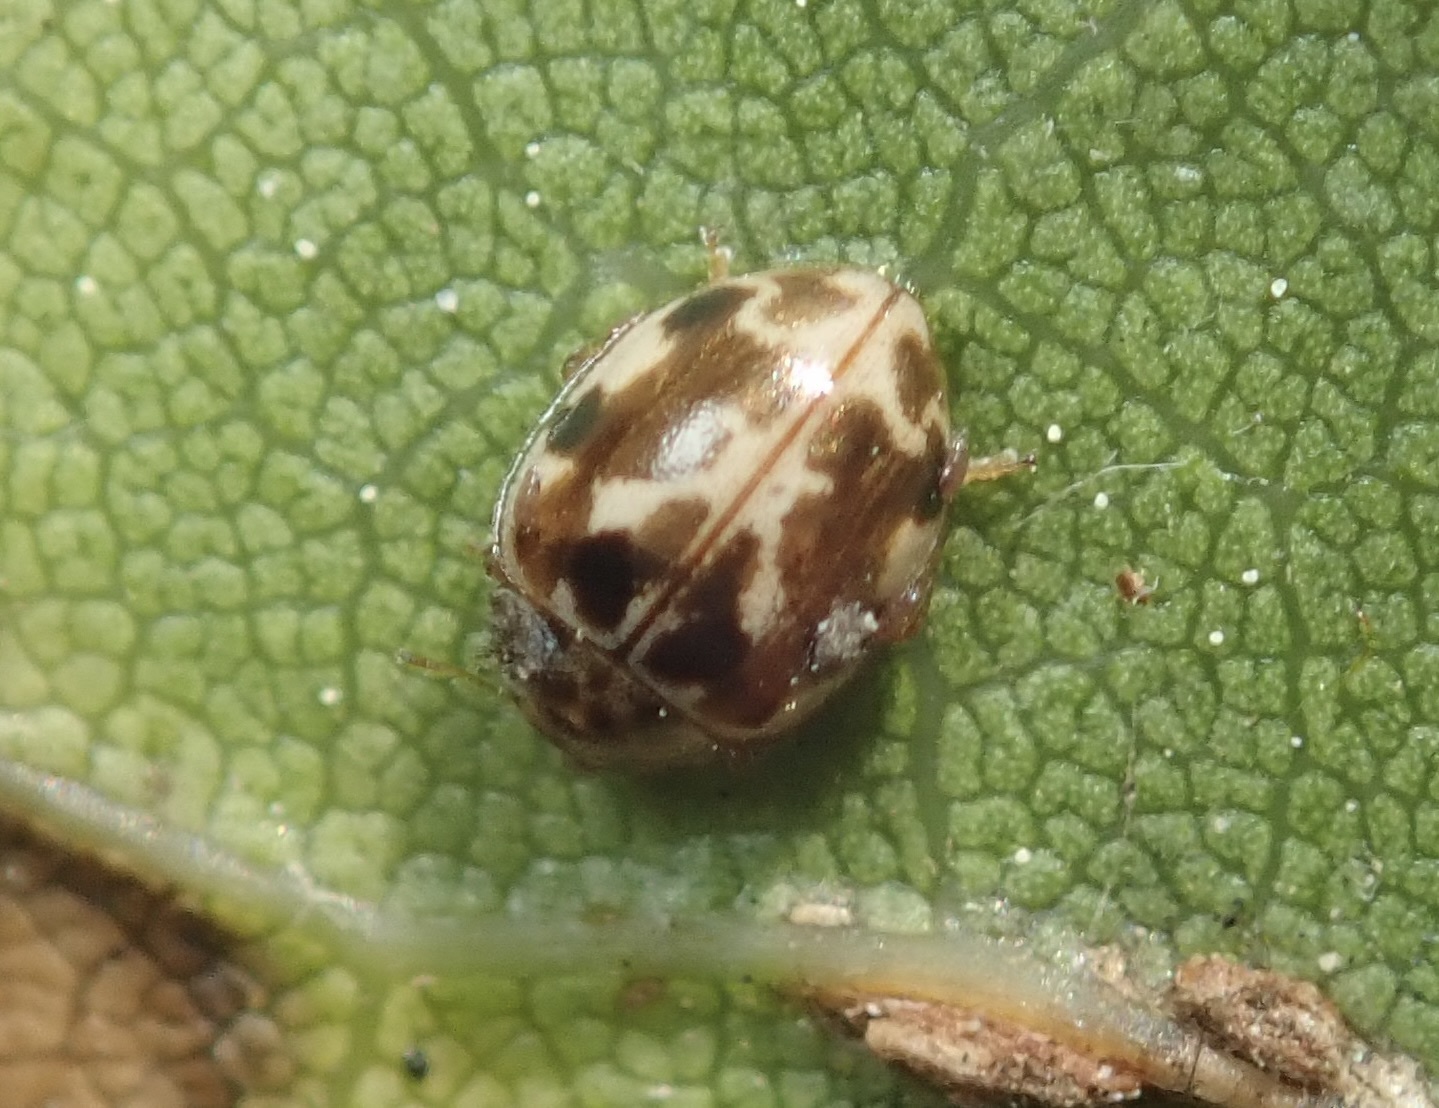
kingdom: Animalia
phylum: Arthropoda
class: Insecta
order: Coleoptera
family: Coccinellidae
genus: Psyllobora
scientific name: Psyllobora vigintimaculata
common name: Ladybird beetle
